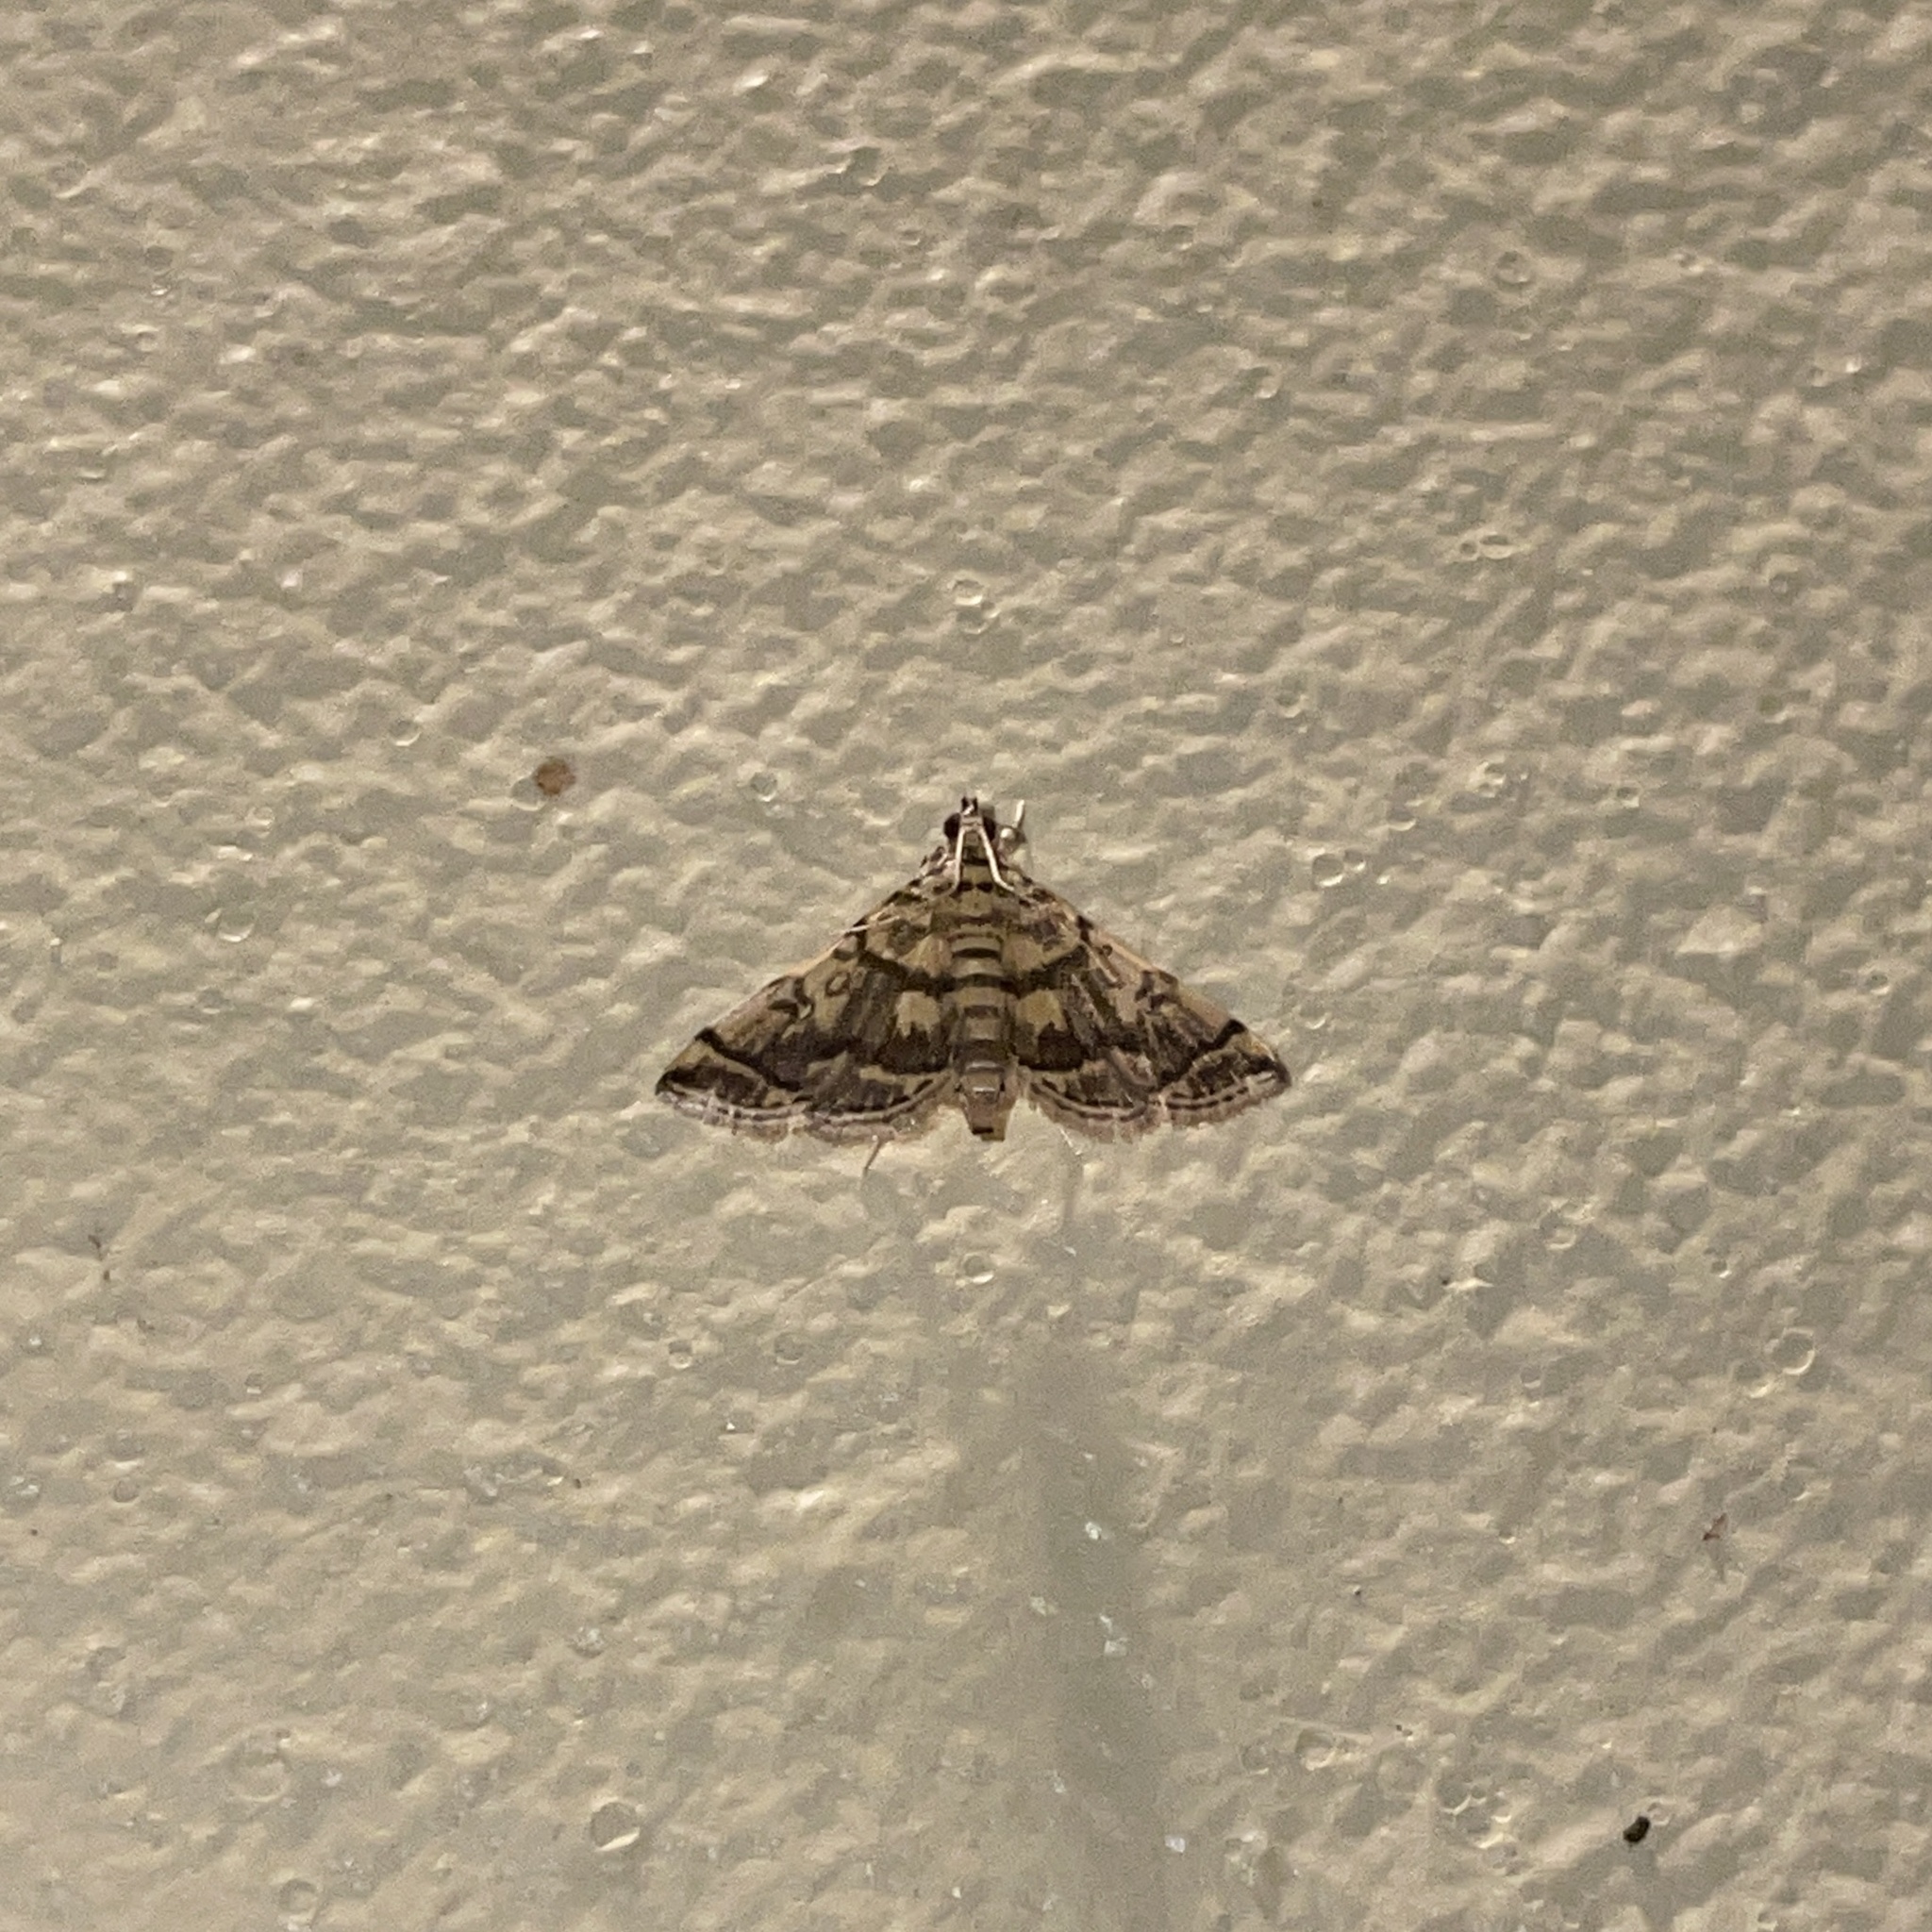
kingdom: Animalia
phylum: Arthropoda
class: Insecta
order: Lepidoptera
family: Crambidae
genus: Apogeshna
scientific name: Apogeshna stenialis
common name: Checkered apogeshna moth
